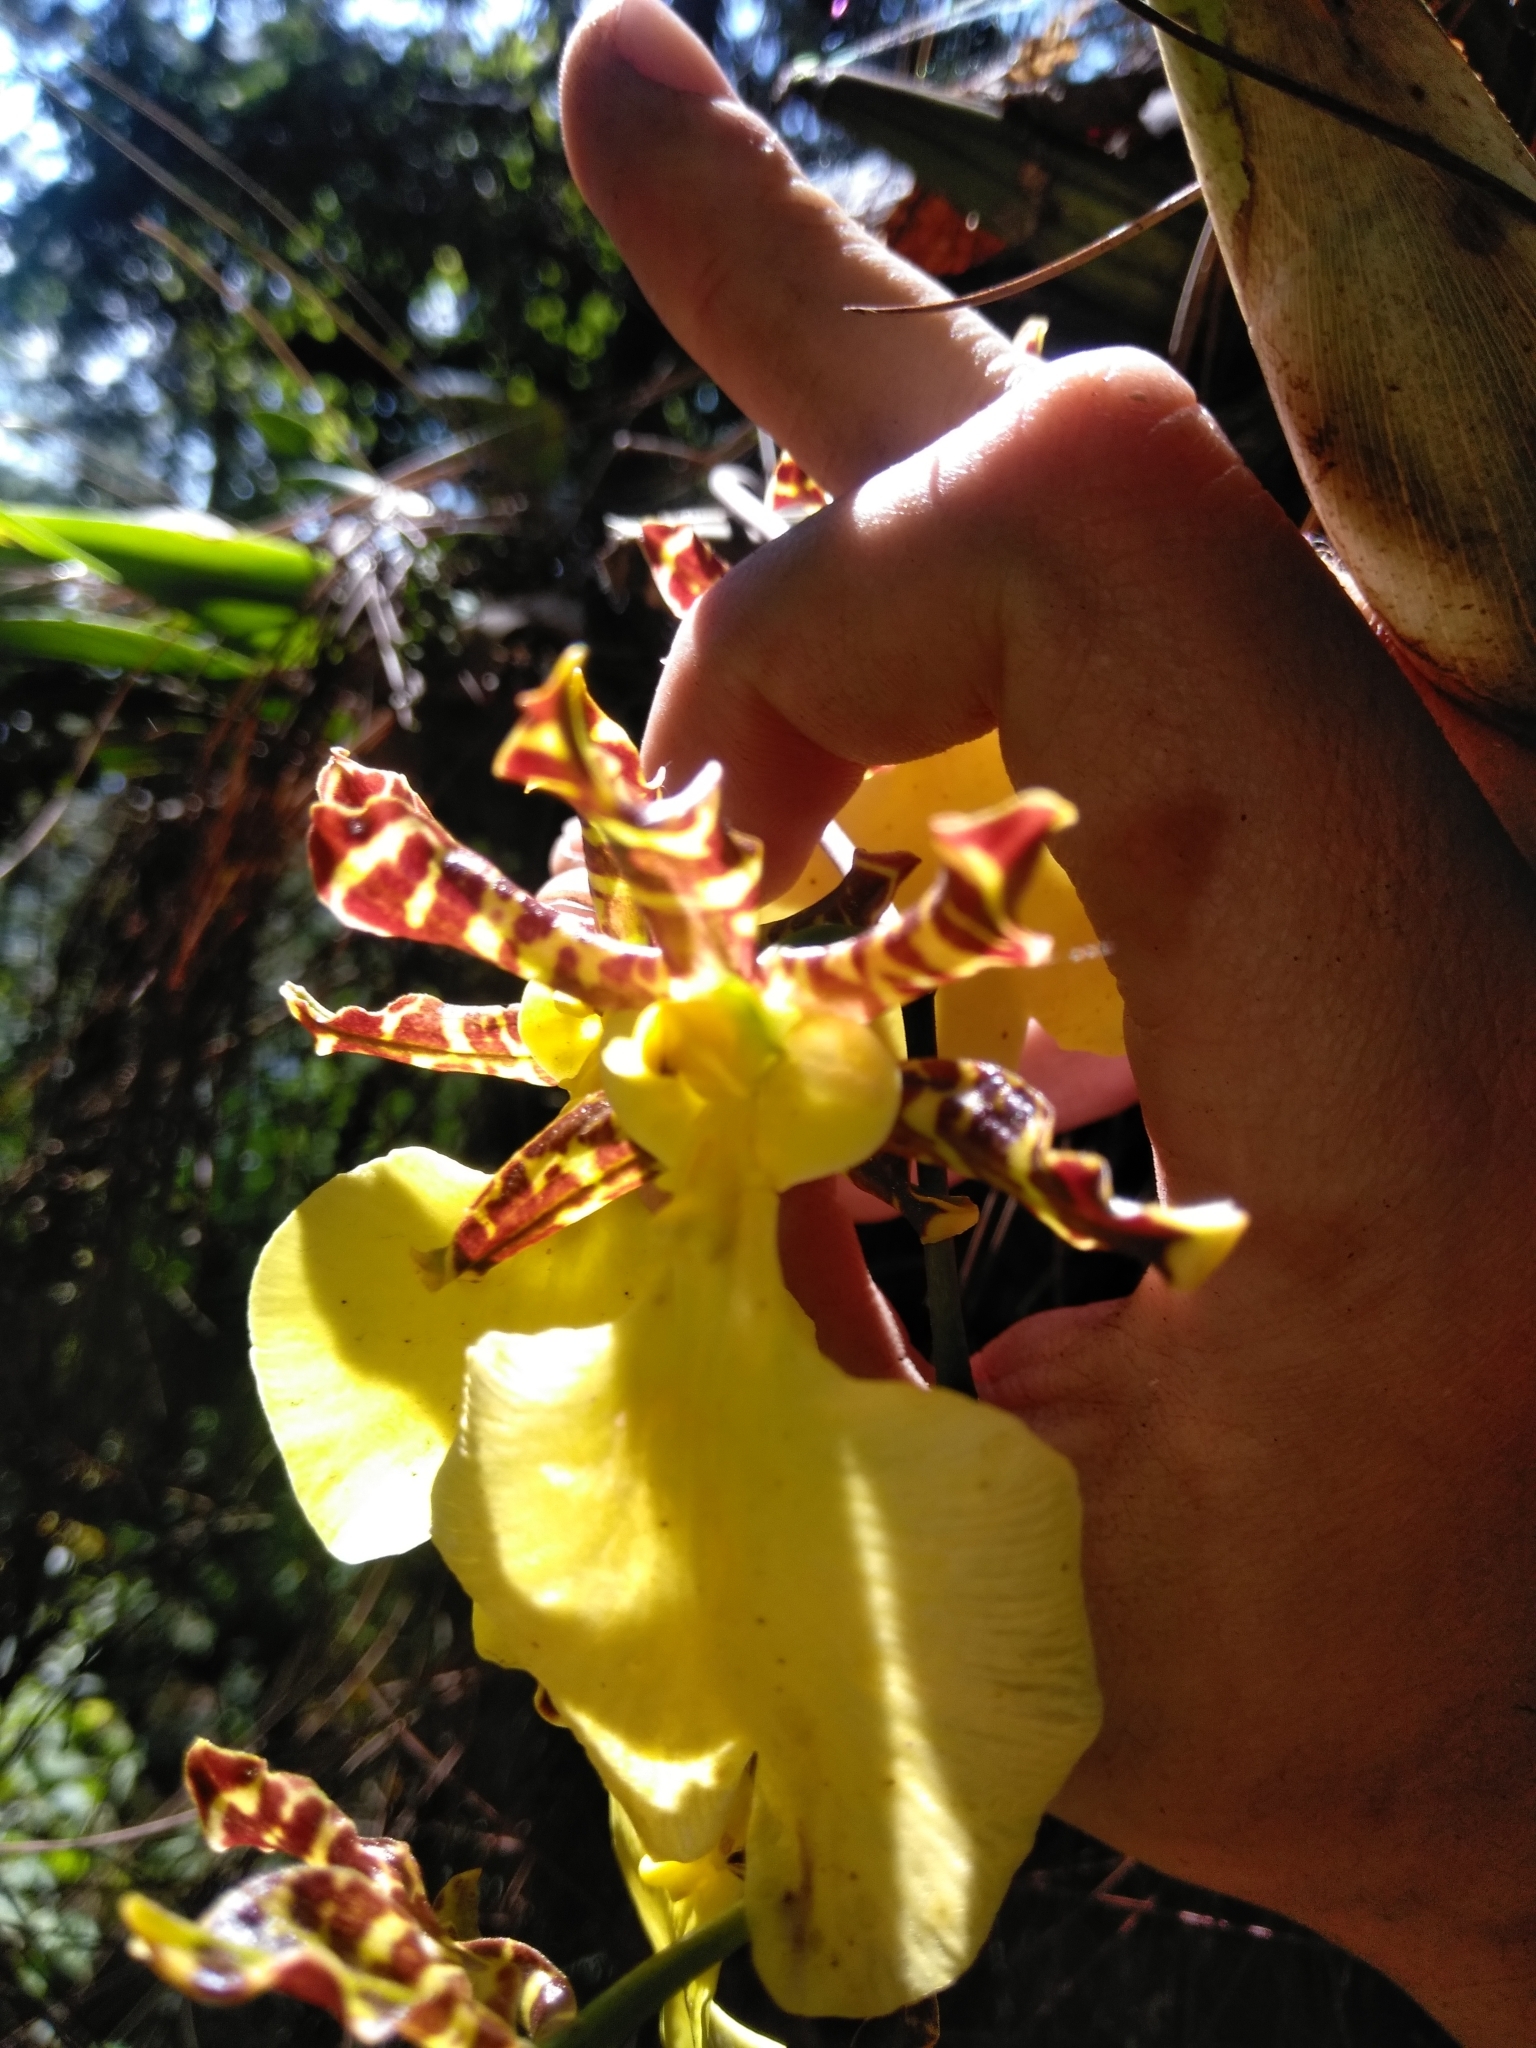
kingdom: Plantae
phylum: Tracheophyta
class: Liliopsida
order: Asparagales
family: Orchidaceae
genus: Oncidium
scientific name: Oncidium tigrinum
